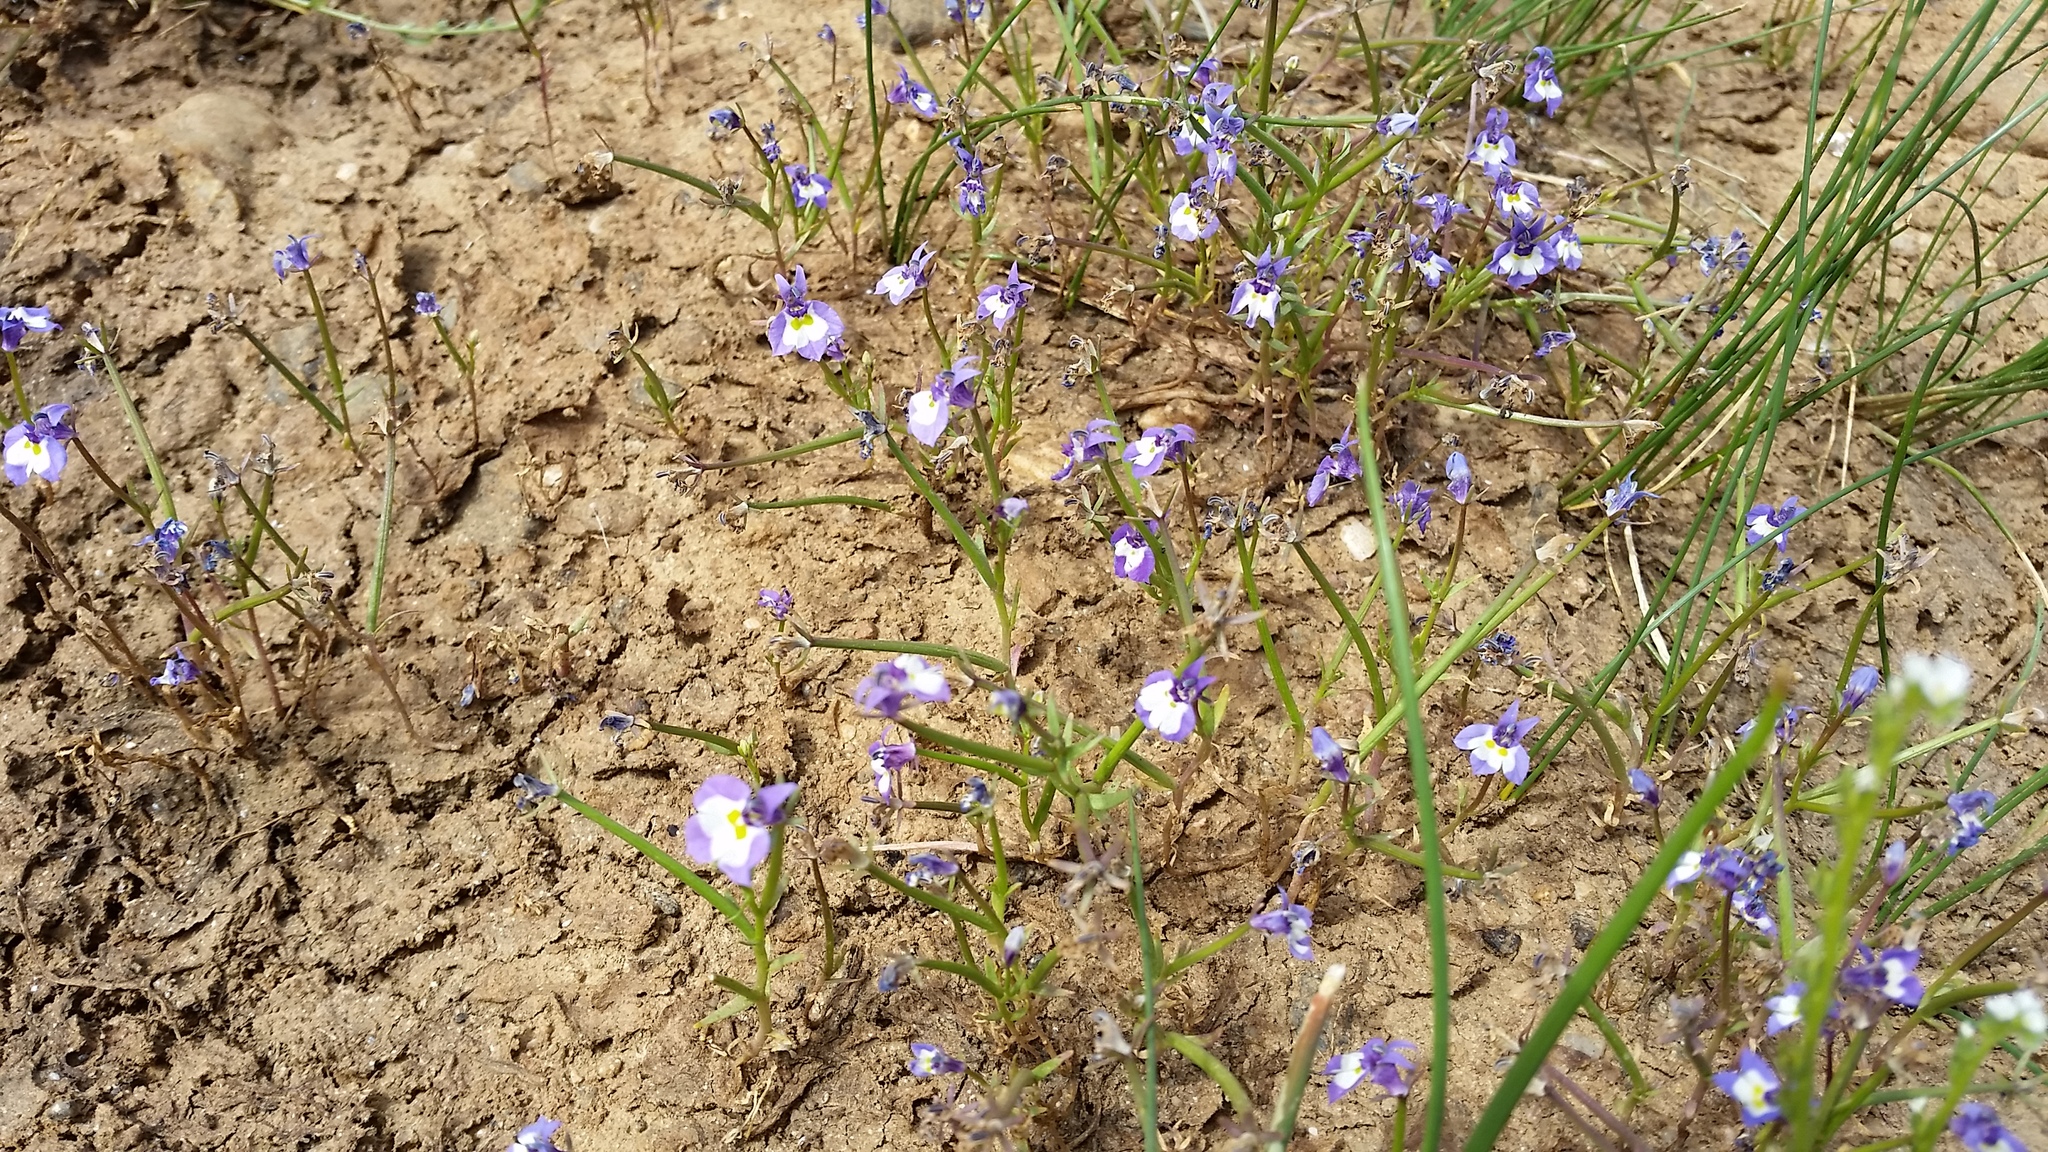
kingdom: Plantae
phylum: Tracheophyta
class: Magnoliopsida
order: Asterales
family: Campanulaceae
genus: Downingia
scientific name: Downingia bicornuta
